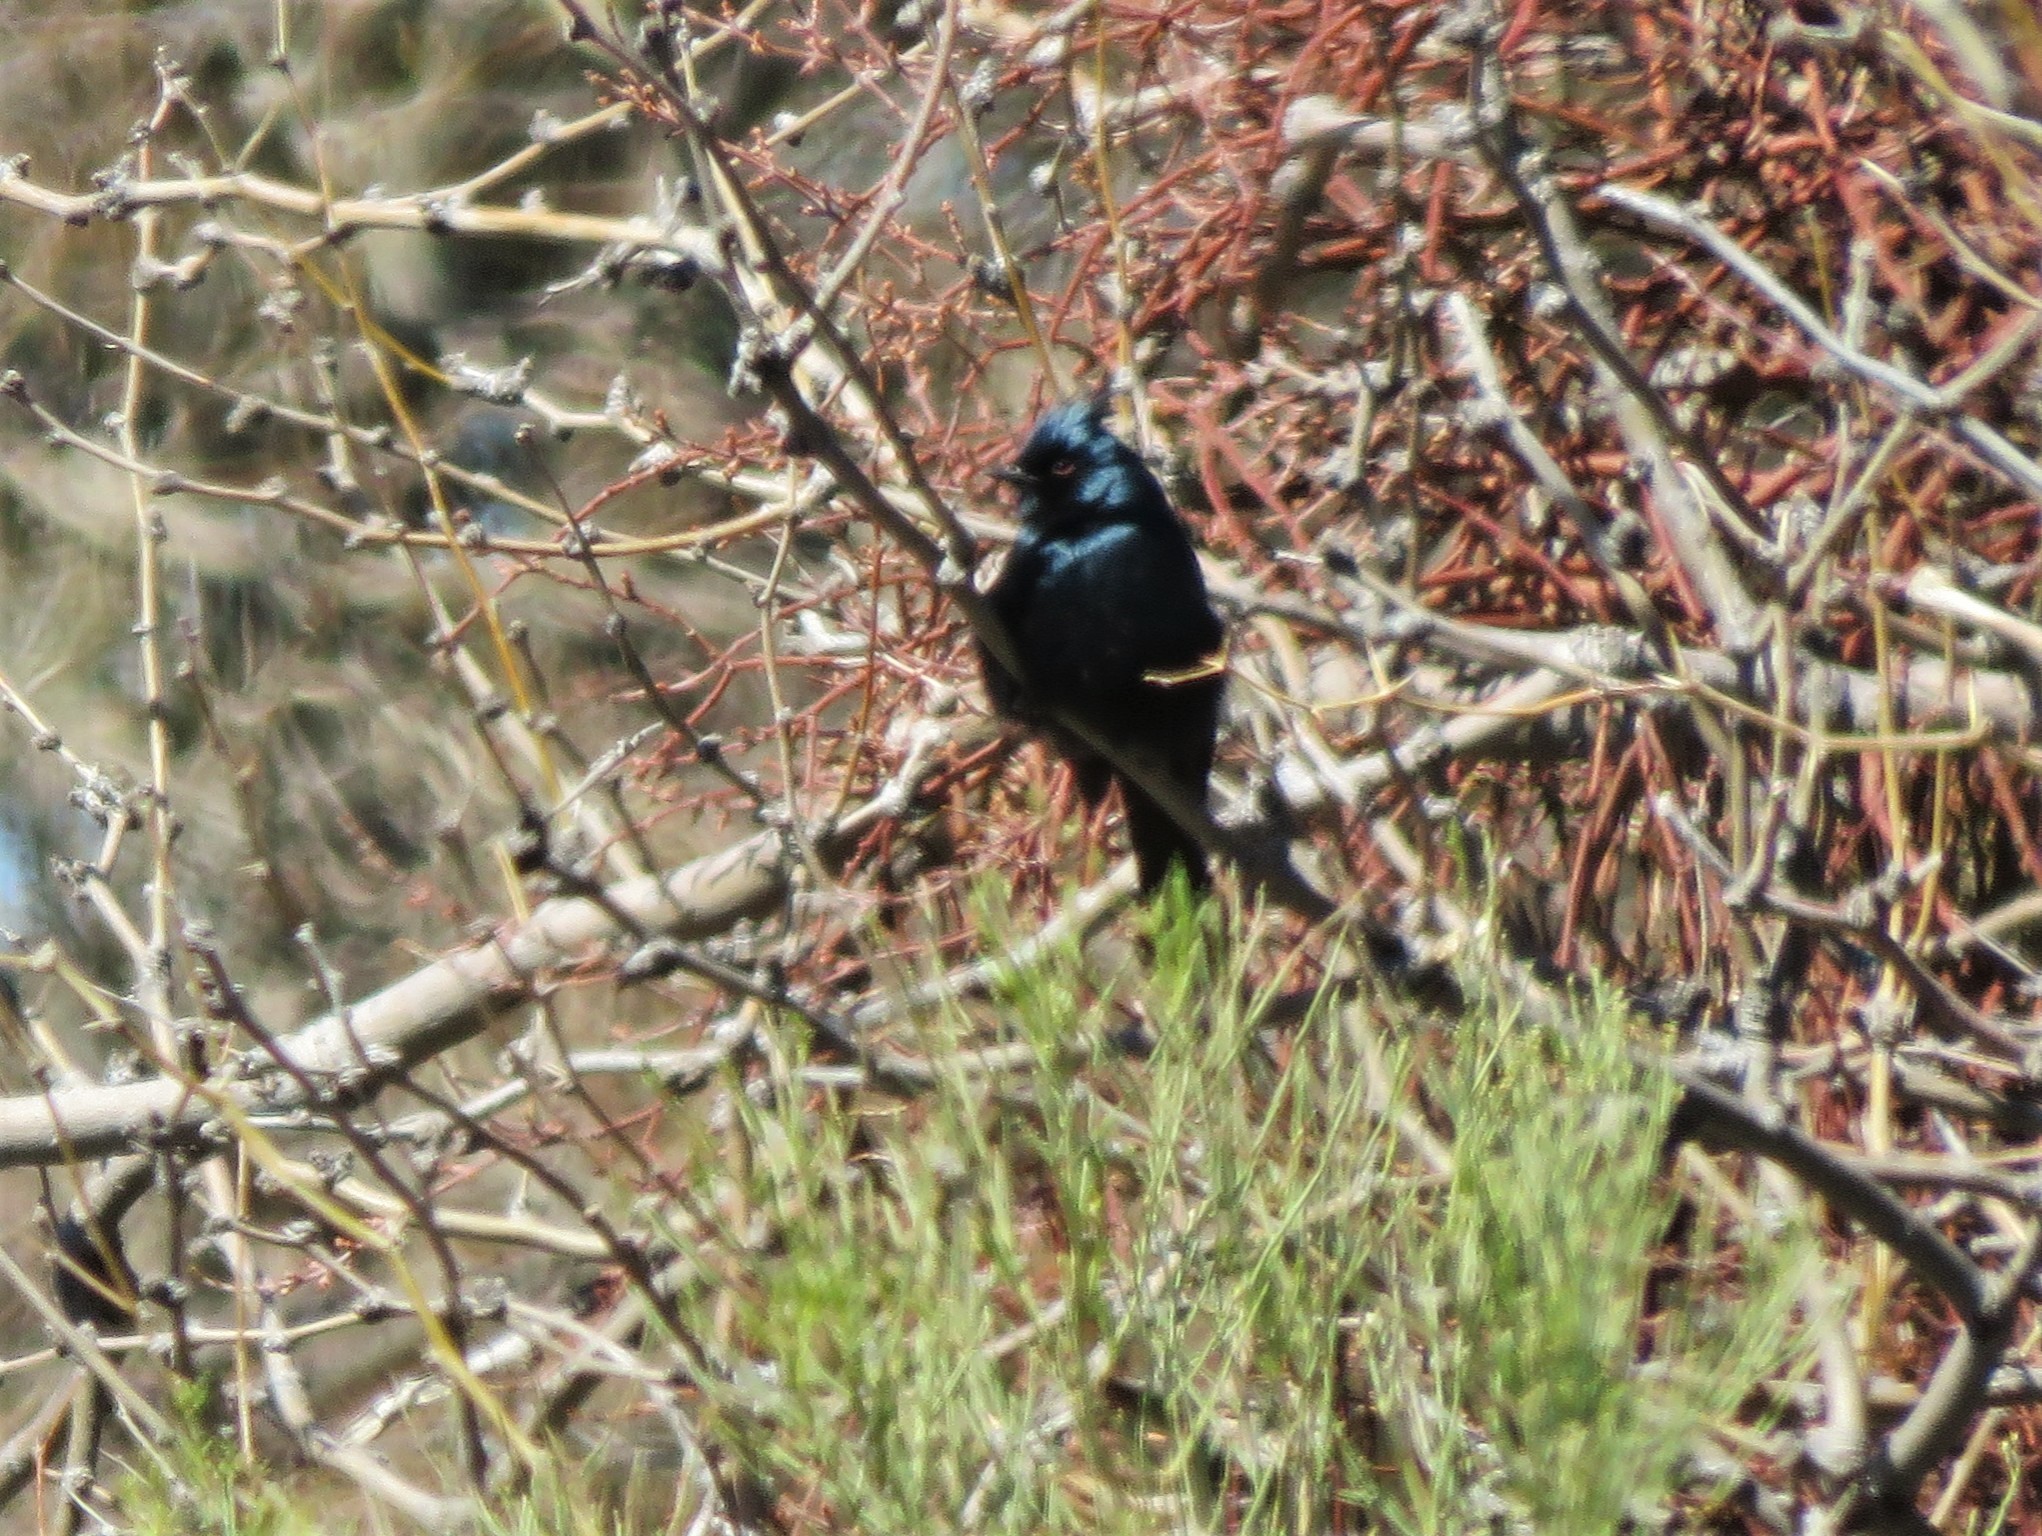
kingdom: Animalia
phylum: Chordata
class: Aves
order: Passeriformes
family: Ptilogonatidae
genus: Phainopepla
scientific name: Phainopepla nitens
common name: Phainopepla
